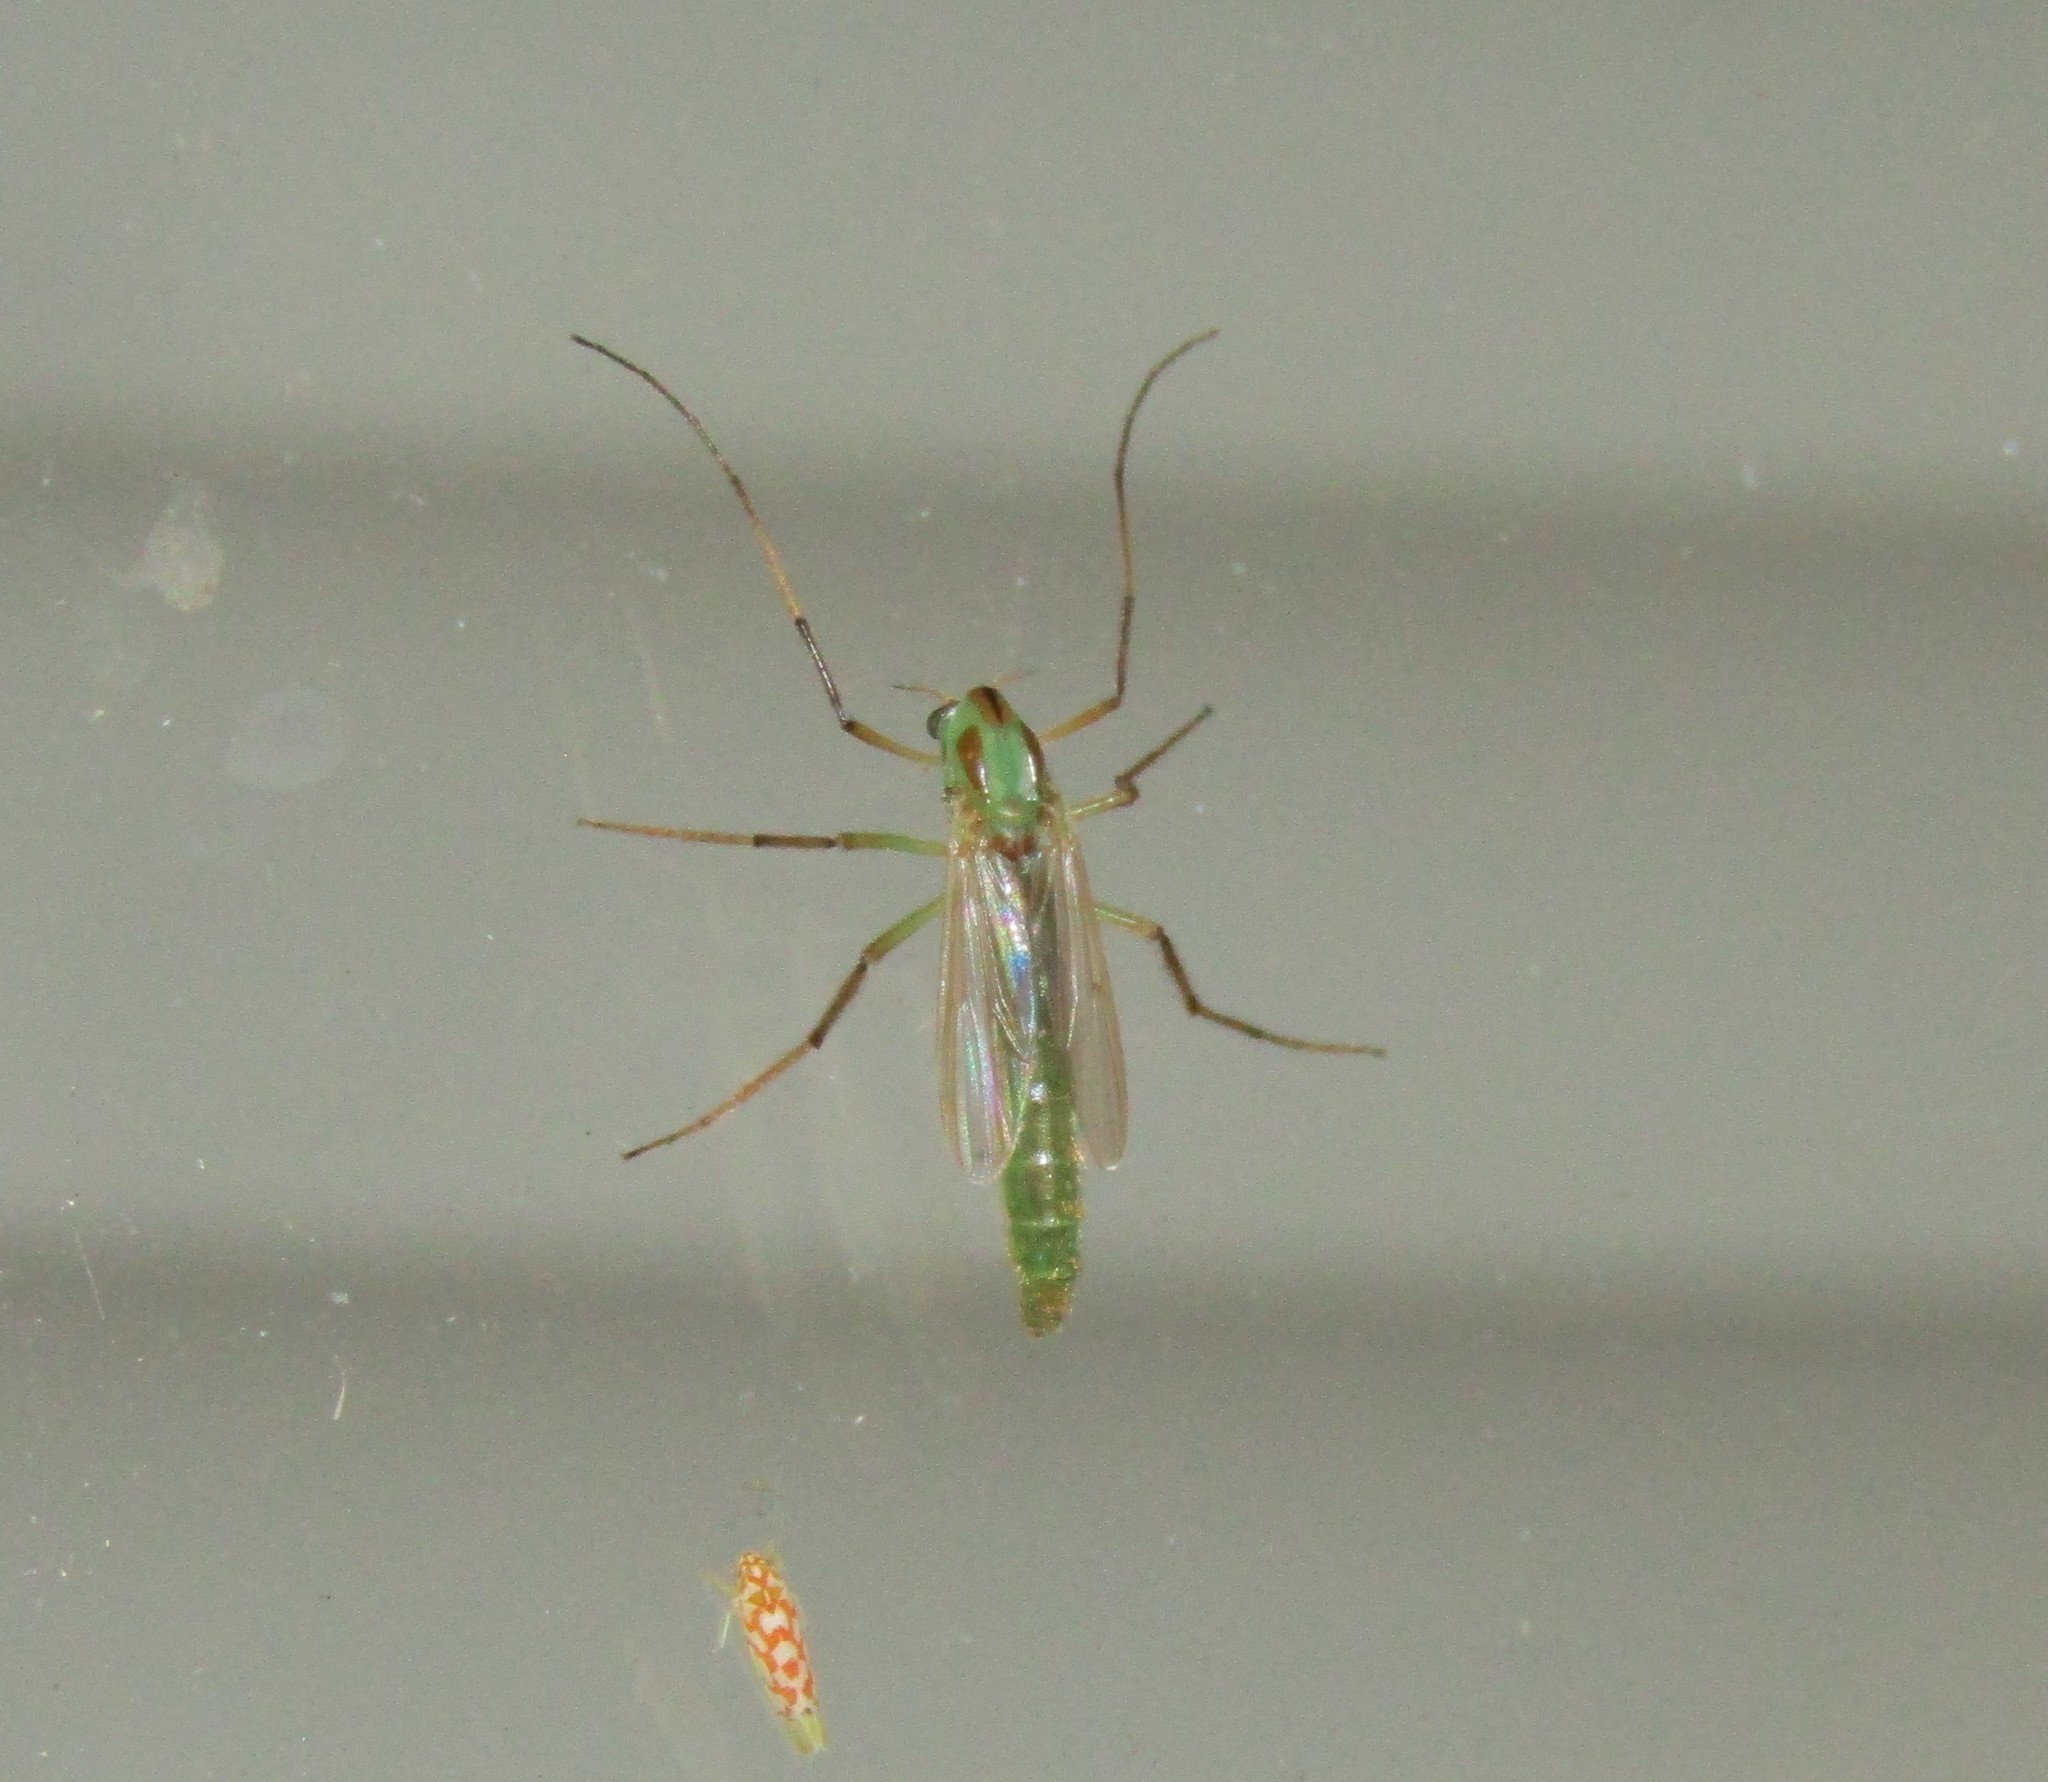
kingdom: Animalia
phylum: Arthropoda
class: Insecta
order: Diptera
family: Chironomidae
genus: Axarus
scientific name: Axarus
